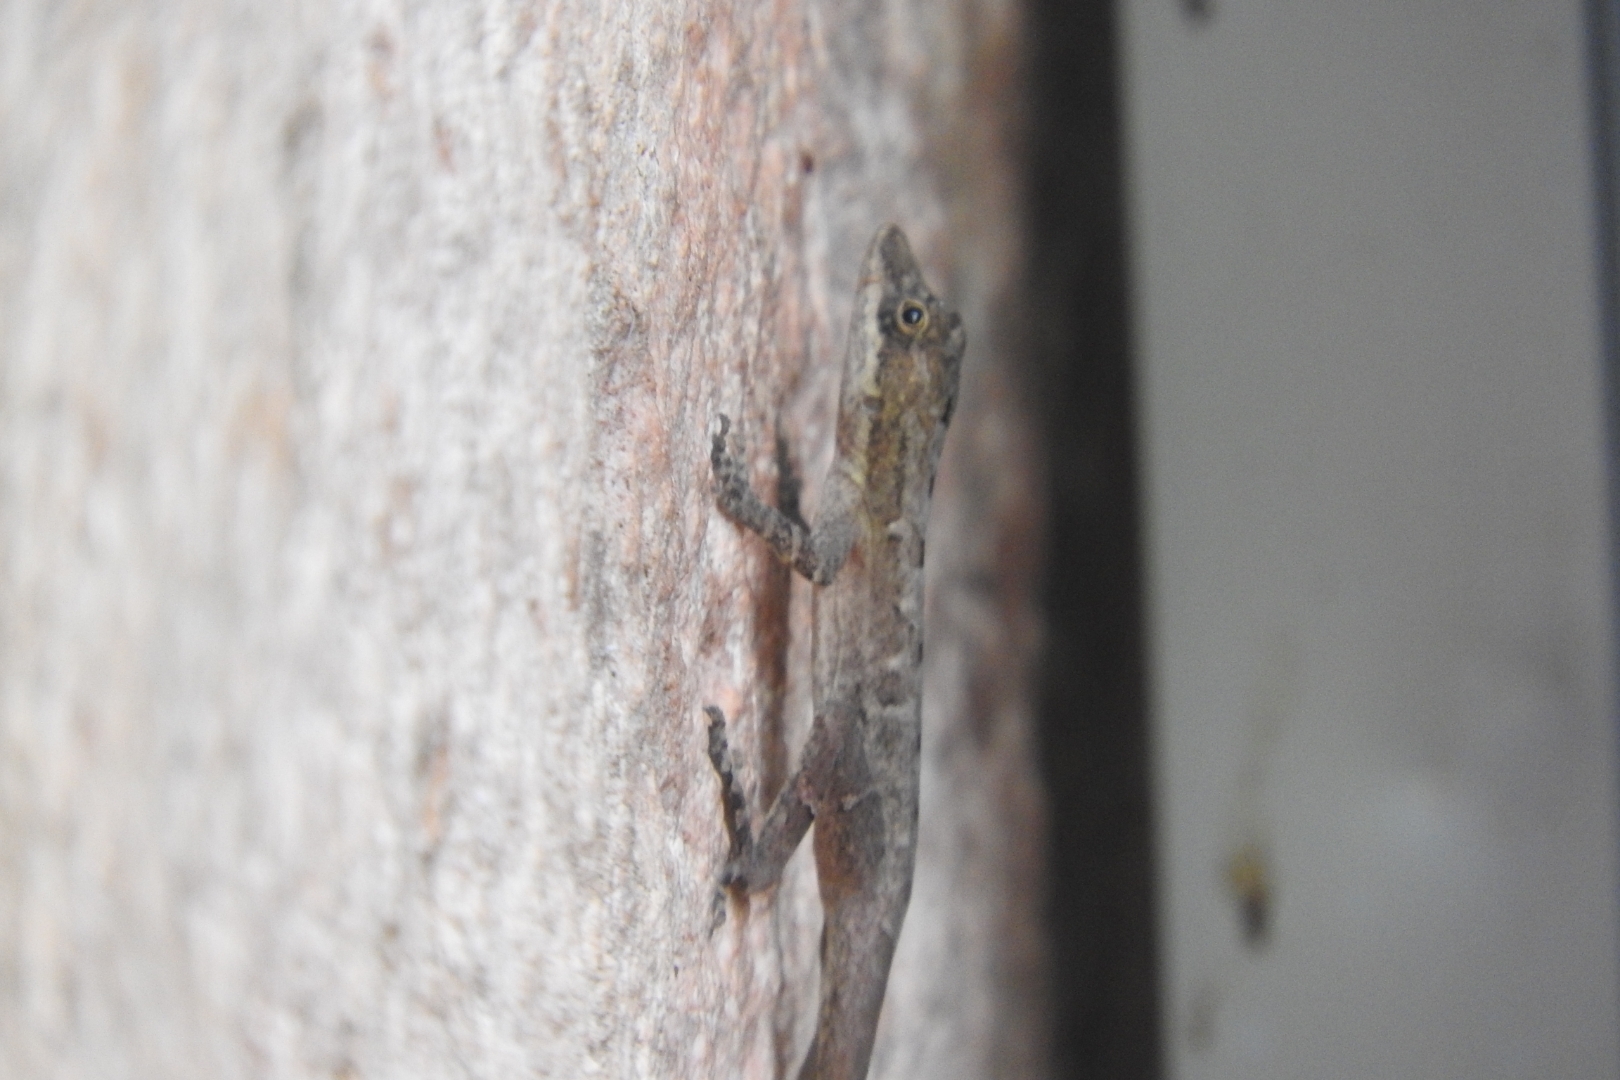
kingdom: Animalia
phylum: Chordata
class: Squamata
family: Dactyloidae
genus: Anolis
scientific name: Anolis rodriguezii
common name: Middle american smooth anole
